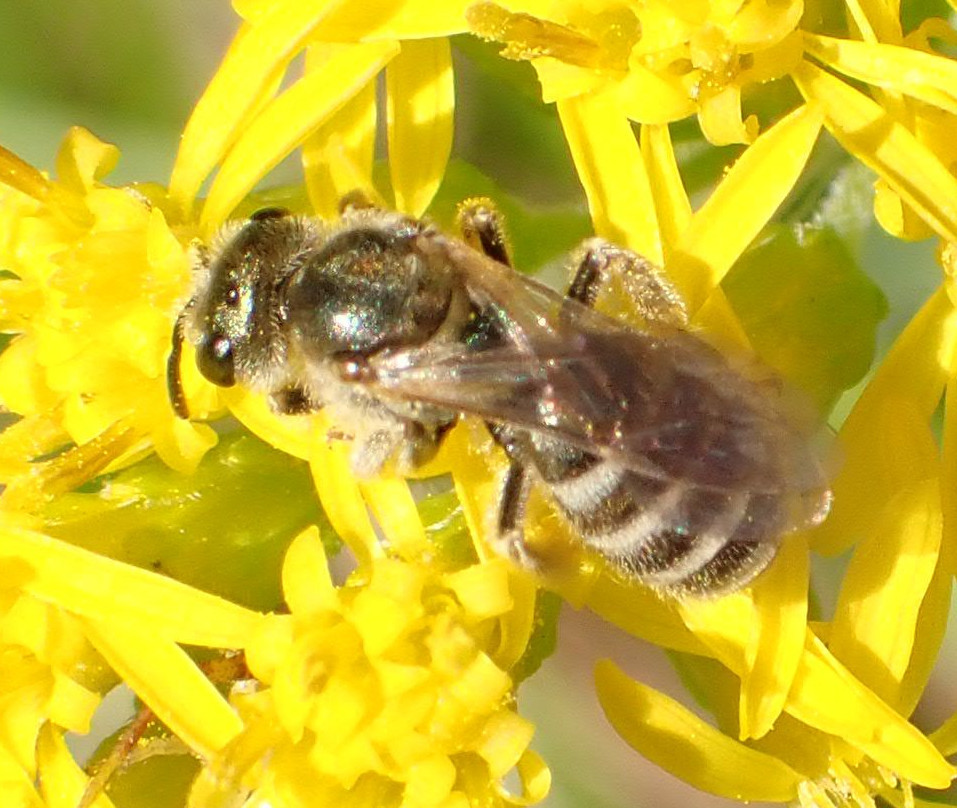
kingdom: Animalia
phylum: Arthropoda
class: Insecta
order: Hymenoptera
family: Halictidae
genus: Halictus
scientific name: Halictus confusus
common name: Southern bronze furrow bee
